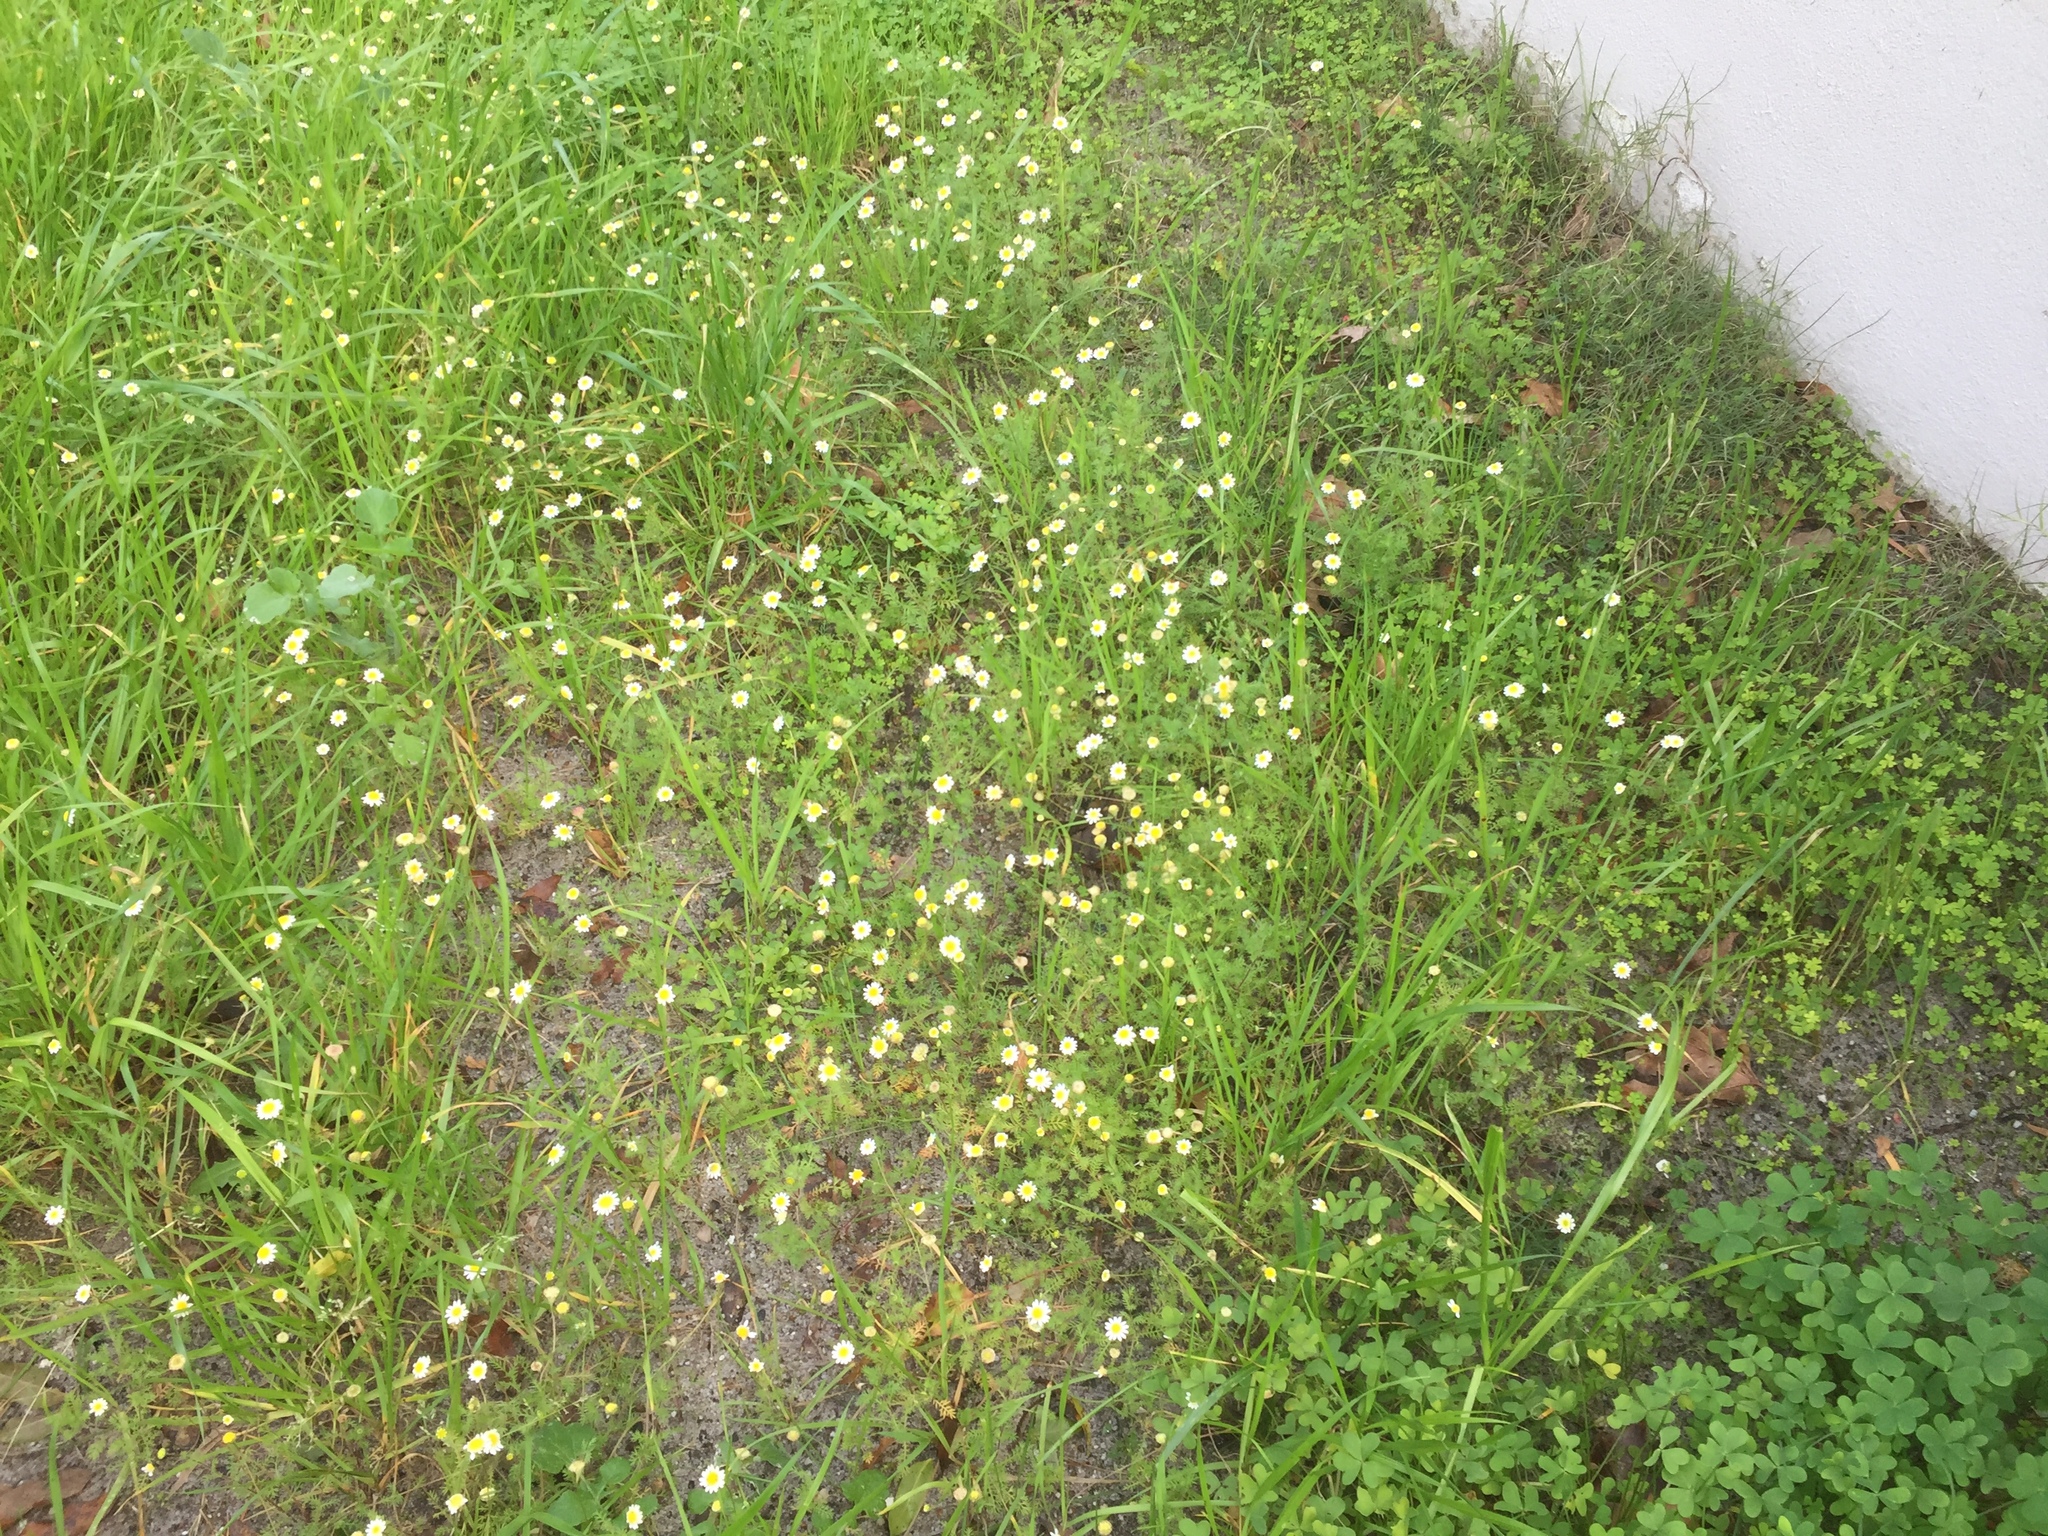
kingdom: Plantae
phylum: Tracheophyta
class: Magnoliopsida
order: Asterales
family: Asteraceae
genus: Cotula
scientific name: Cotula turbinata
